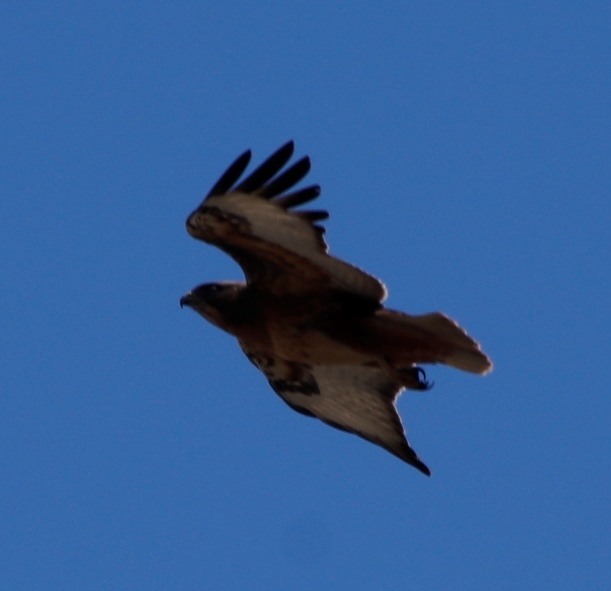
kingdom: Animalia
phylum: Chordata
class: Aves
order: Accipitriformes
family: Accipitridae
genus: Buteo
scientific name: Buteo rufofuscus
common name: Jackal buzzard
